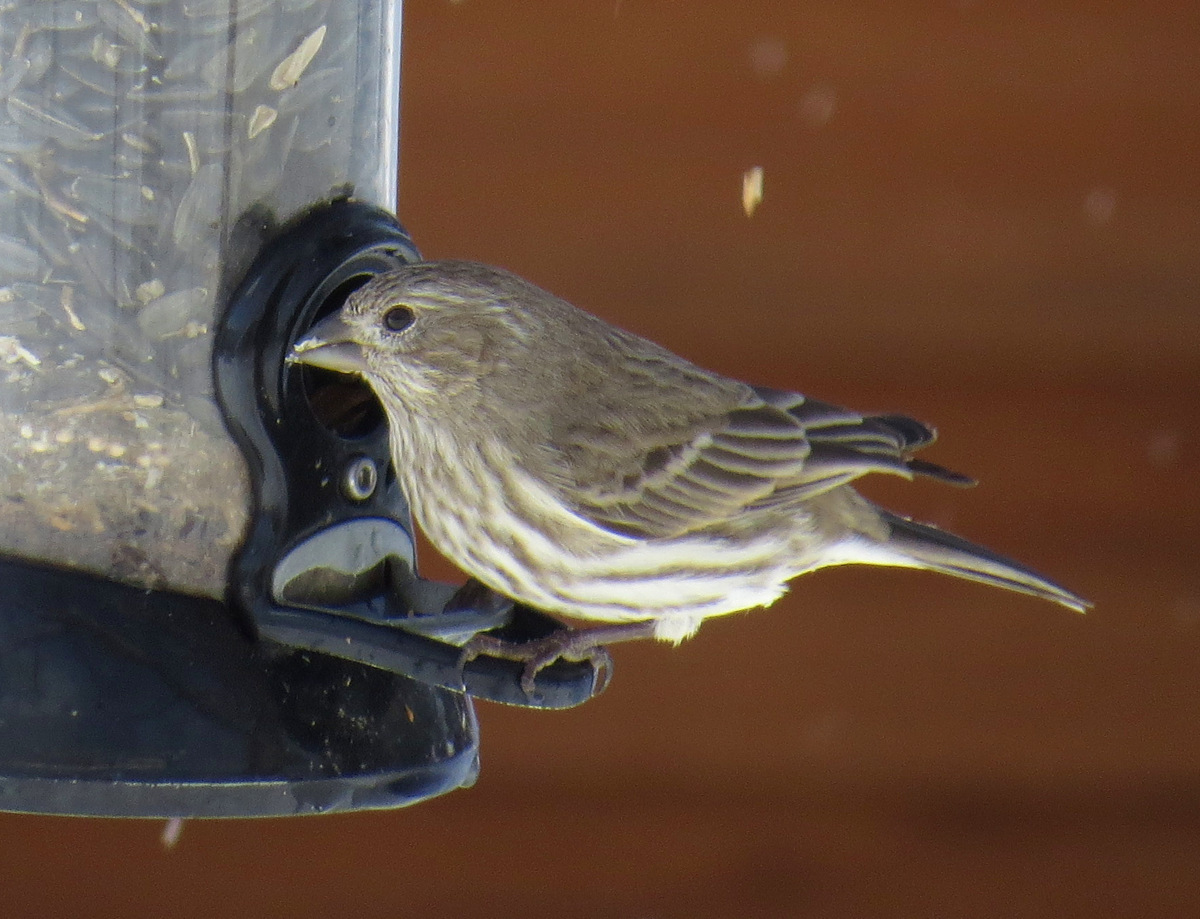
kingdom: Animalia
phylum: Chordata
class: Aves
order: Passeriformes
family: Fringillidae
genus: Haemorhous
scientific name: Haemorhous mexicanus
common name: House finch
